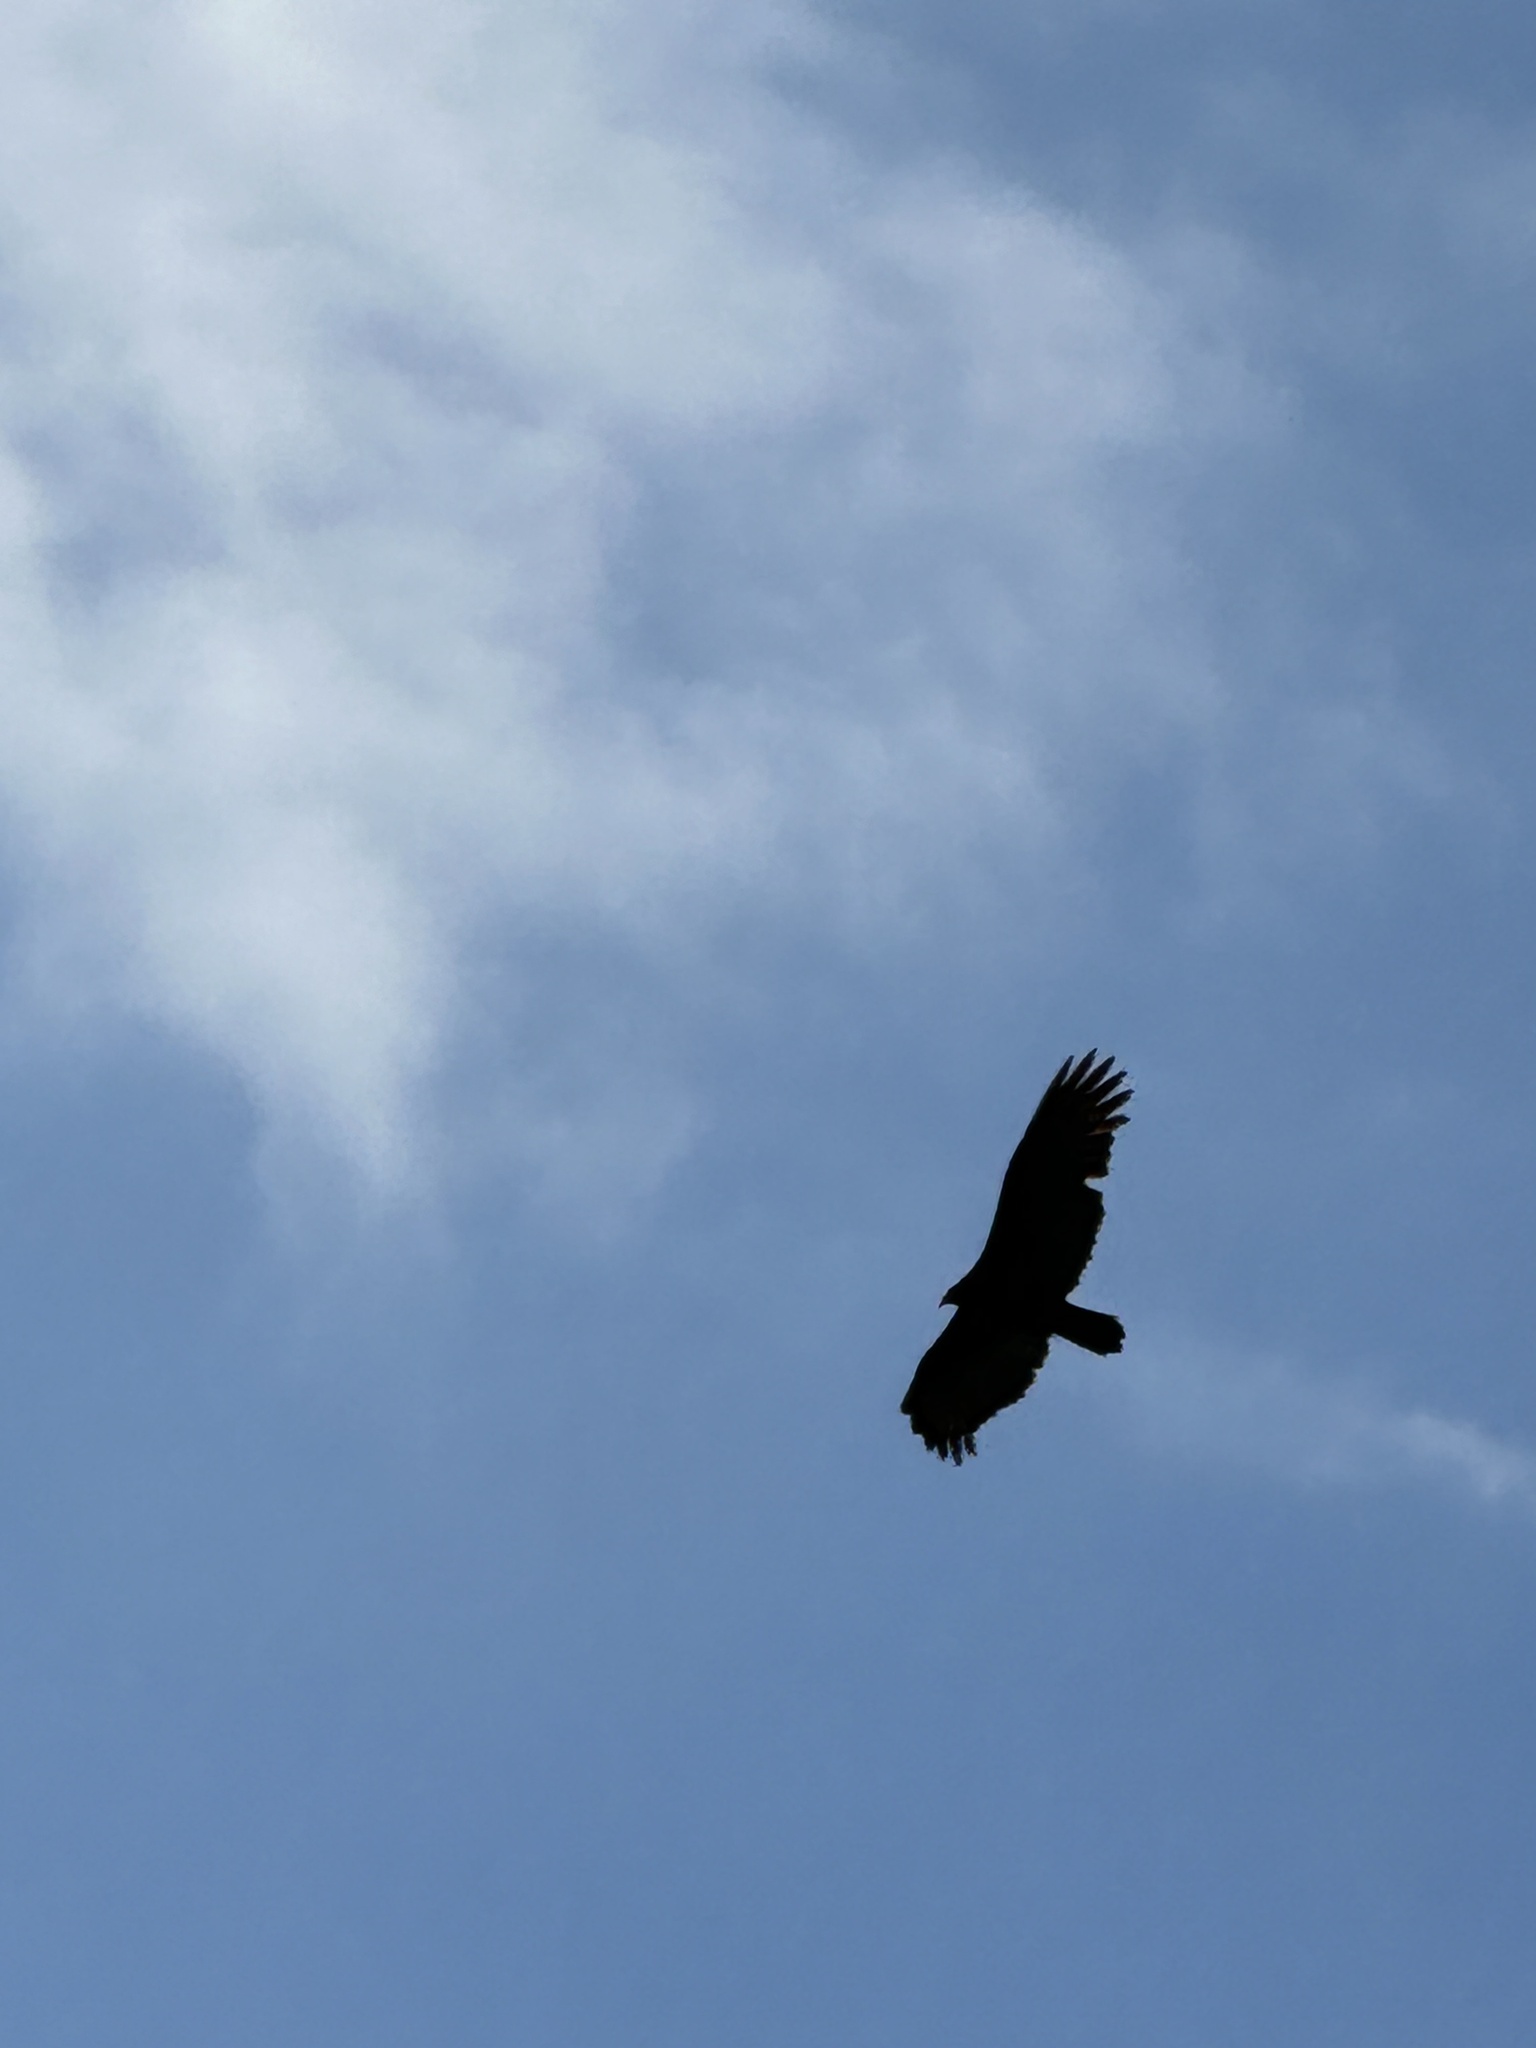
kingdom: Animalia
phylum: Chordata
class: Aves
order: Accipitriformes
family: Cathartidae
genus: Cathartes
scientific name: Cathartes aura
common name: Turkey vulture
